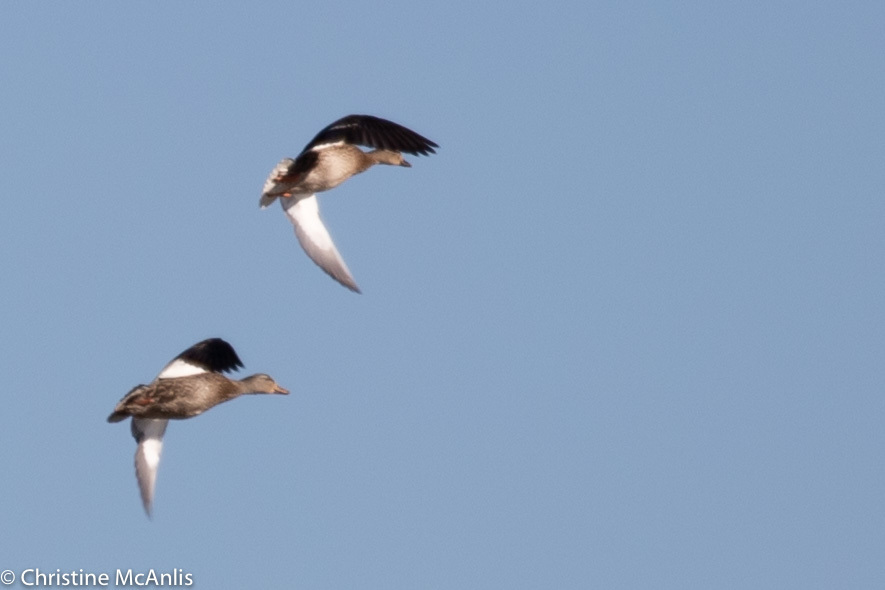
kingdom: Animalia
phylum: Chordata
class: Aves
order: Anseriformes
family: Anatidae
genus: Anas
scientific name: Anas platyrhynchos
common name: Mallard
